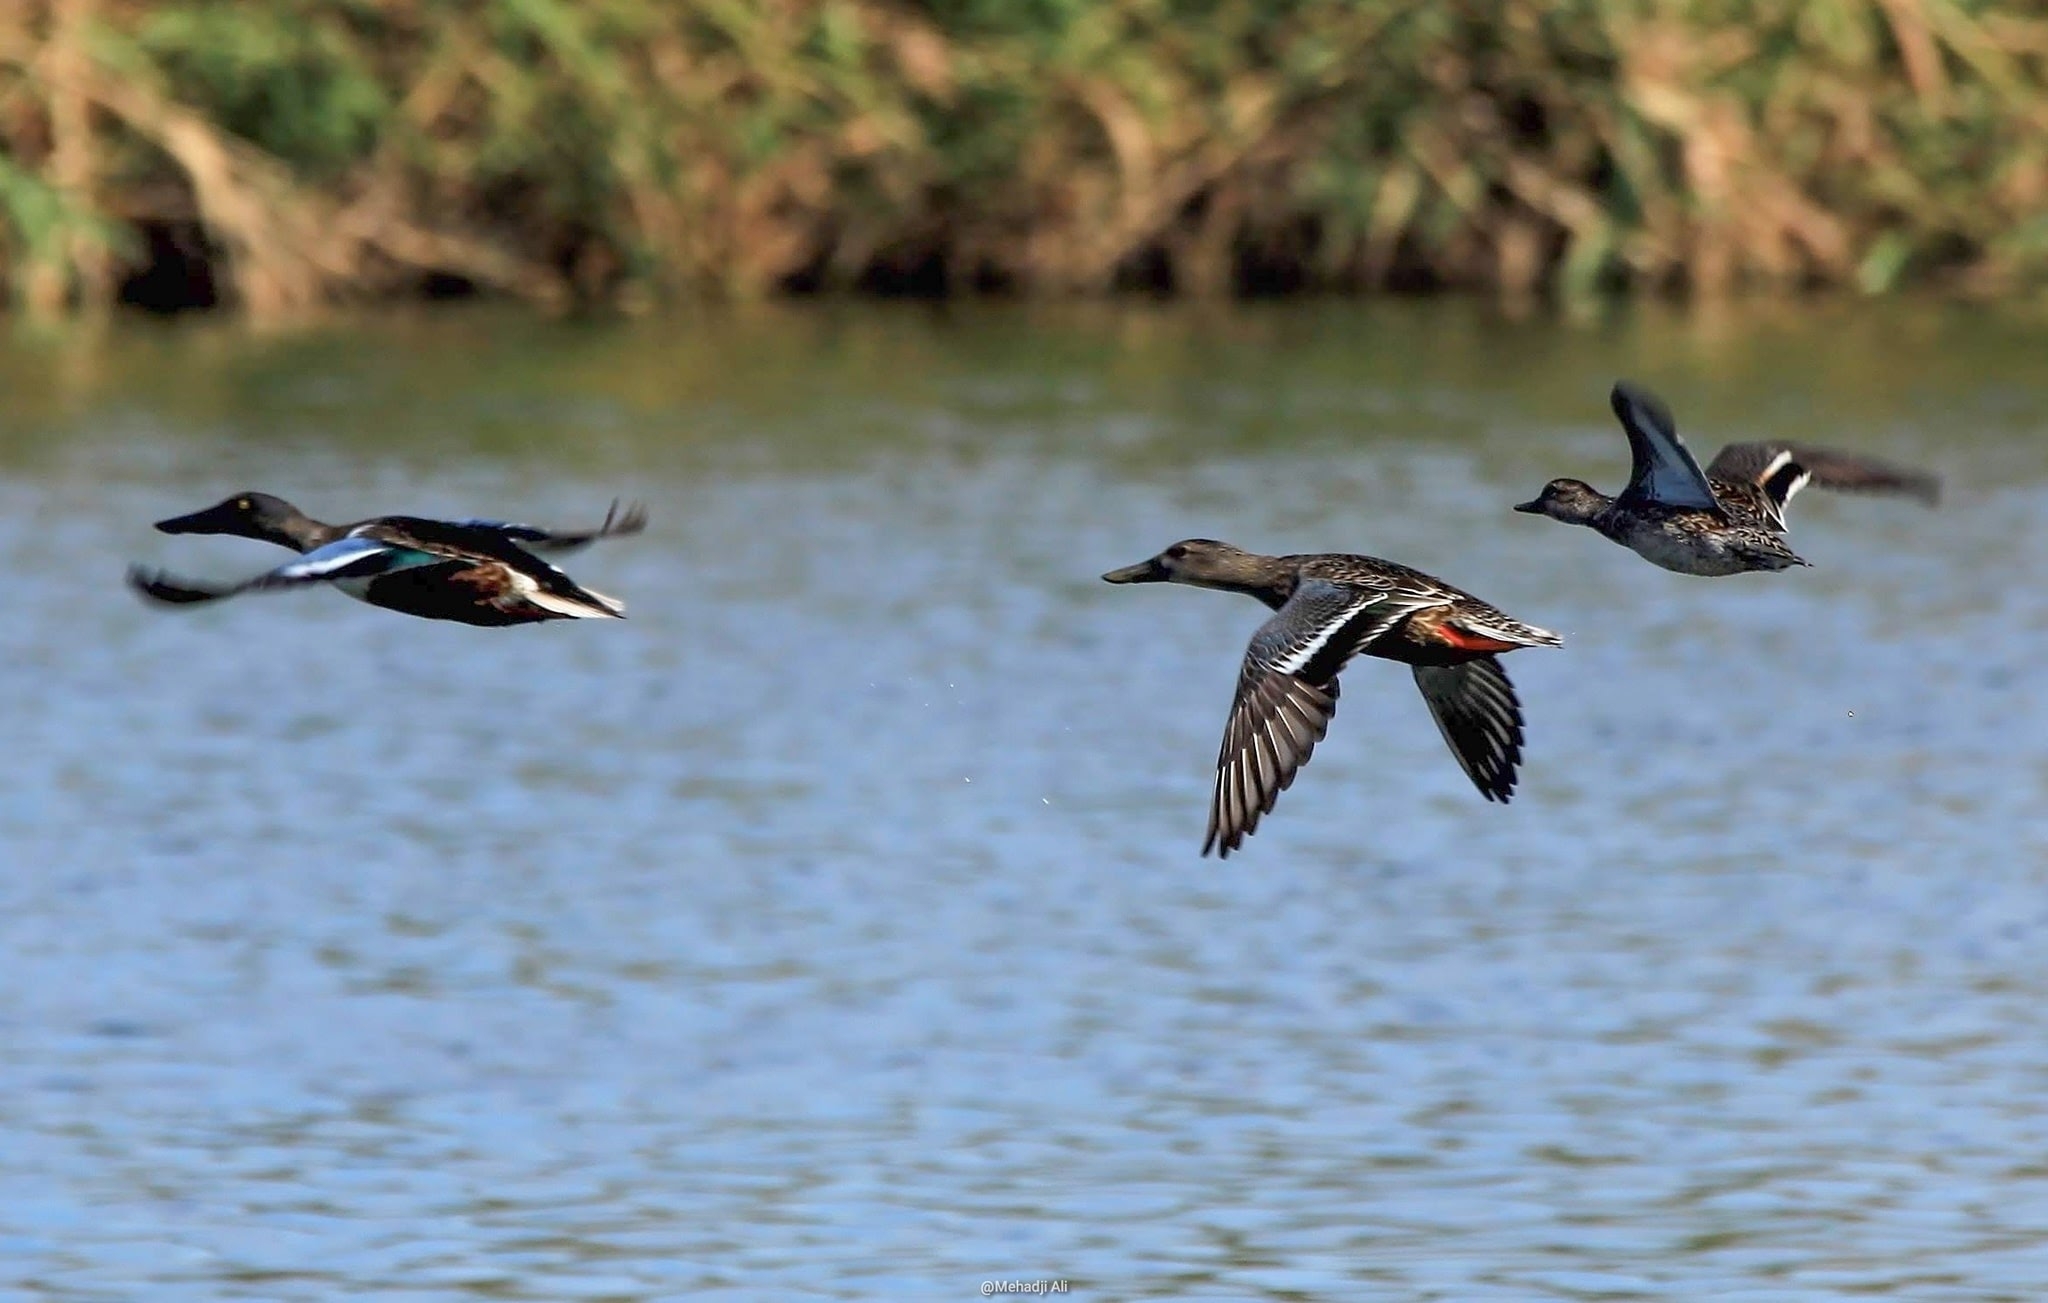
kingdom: Animalia
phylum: Chordata
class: Aves
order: Anseriformes
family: Anatidae
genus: Spatula
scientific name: Spatula clypeata
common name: Northern shoveler
